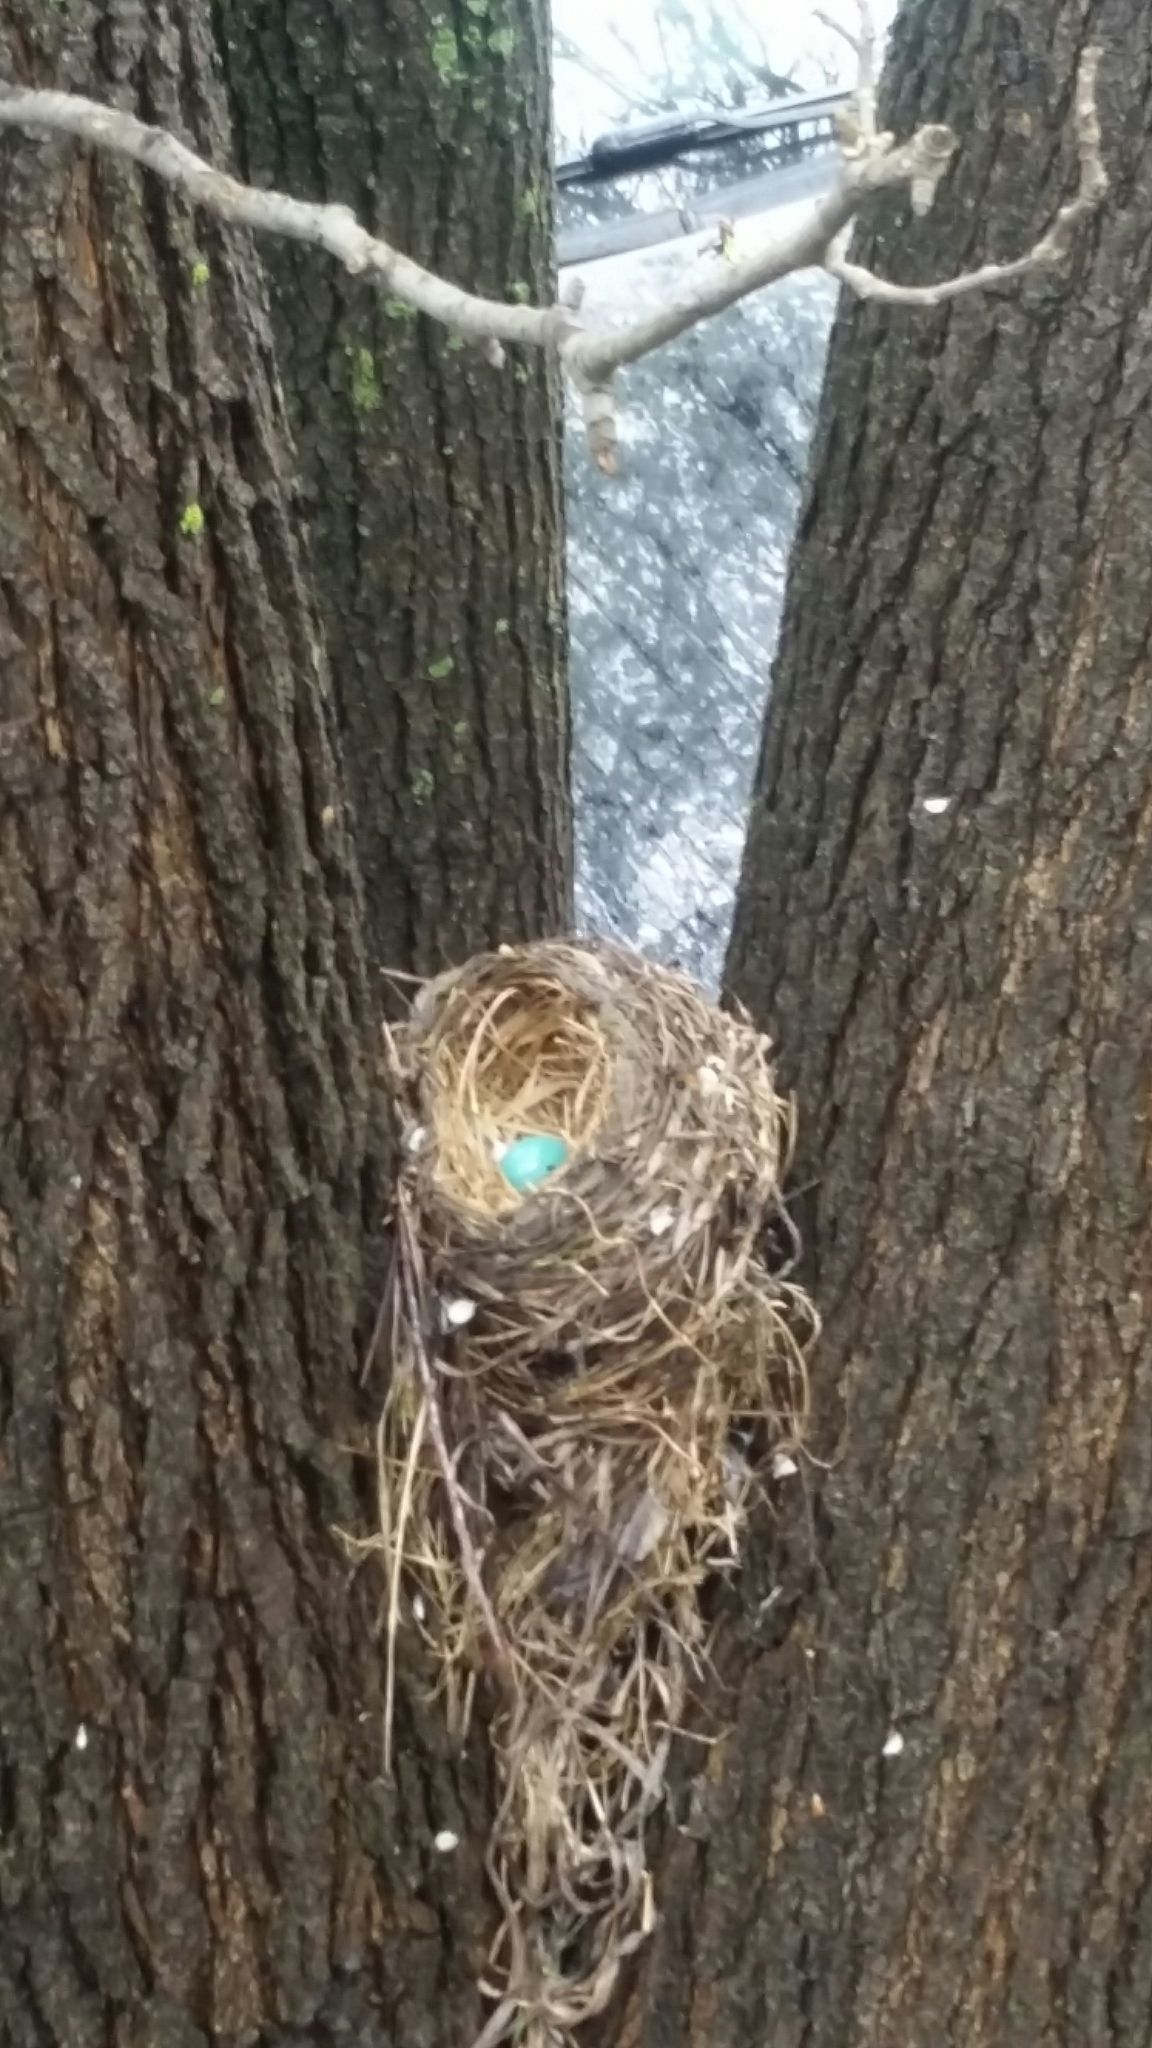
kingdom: Animalia
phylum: Chordata
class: Aves
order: Passeriformes
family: Turdidae
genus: Turdus
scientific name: Turdus migratorius
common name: American robin
